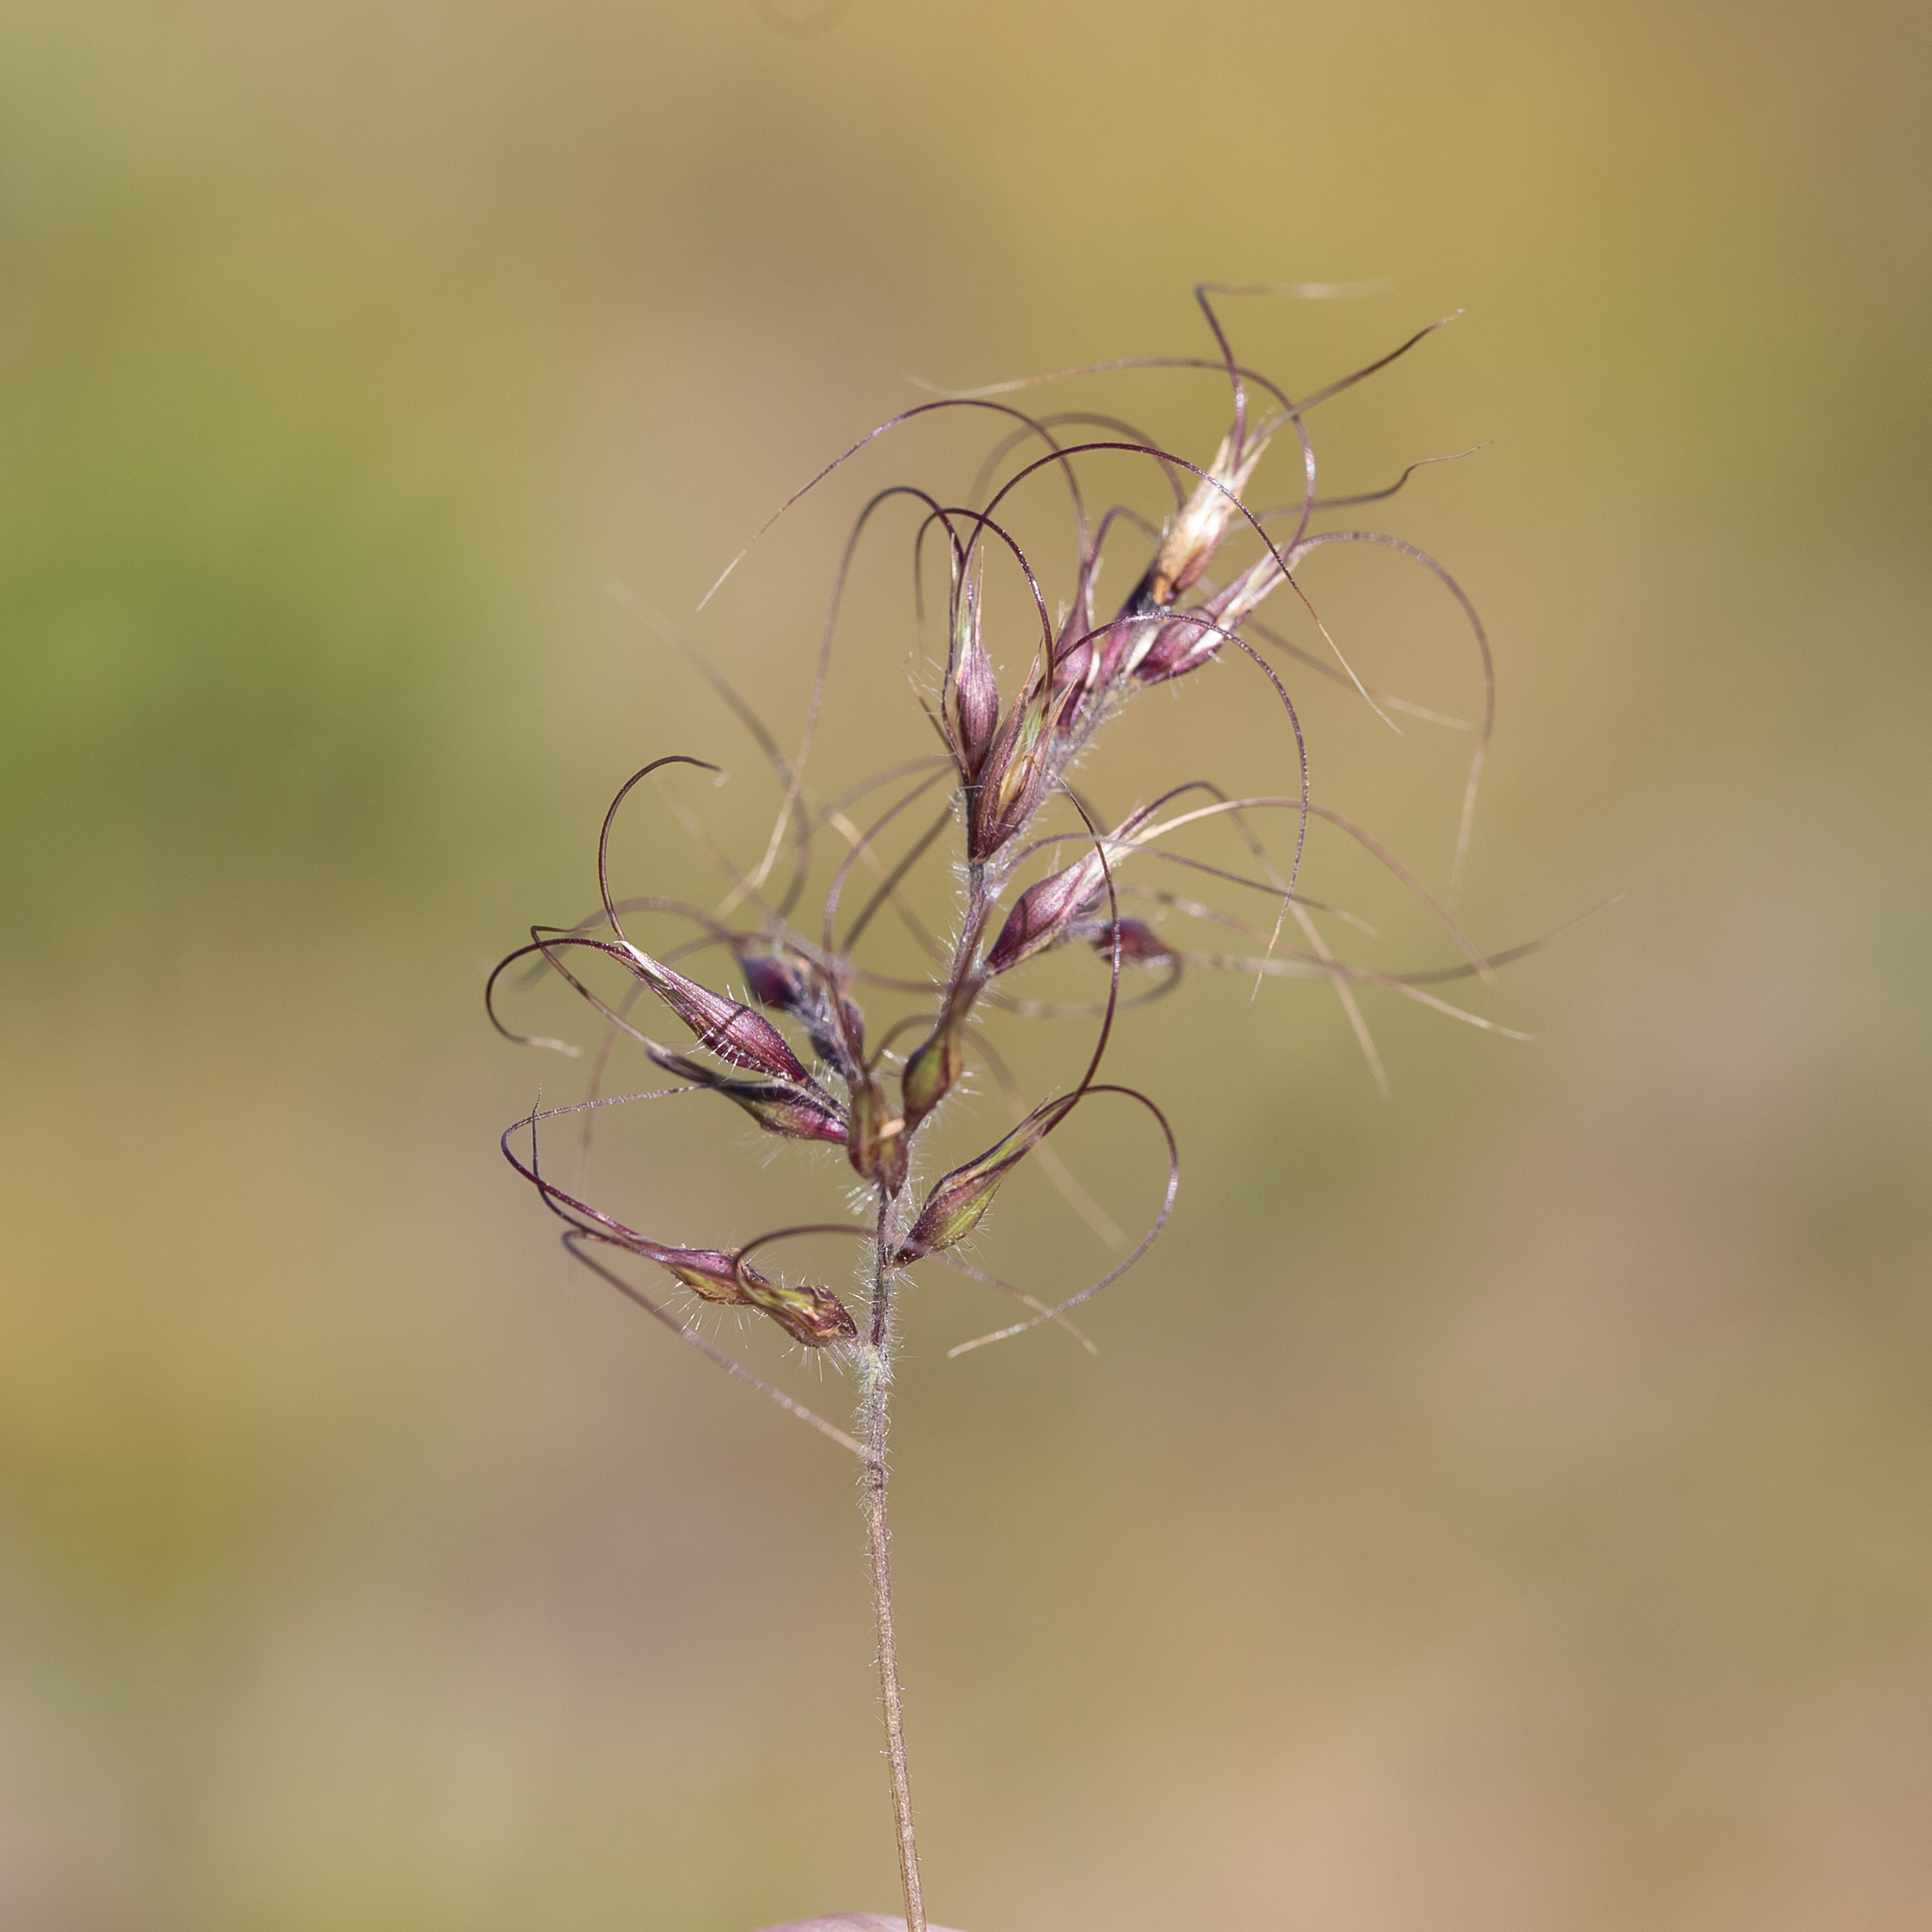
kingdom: Plantae
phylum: Tracheophyta
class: Liliopsida
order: Poales
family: Poaceae
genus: Eriachne
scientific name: Eriachne armitii
